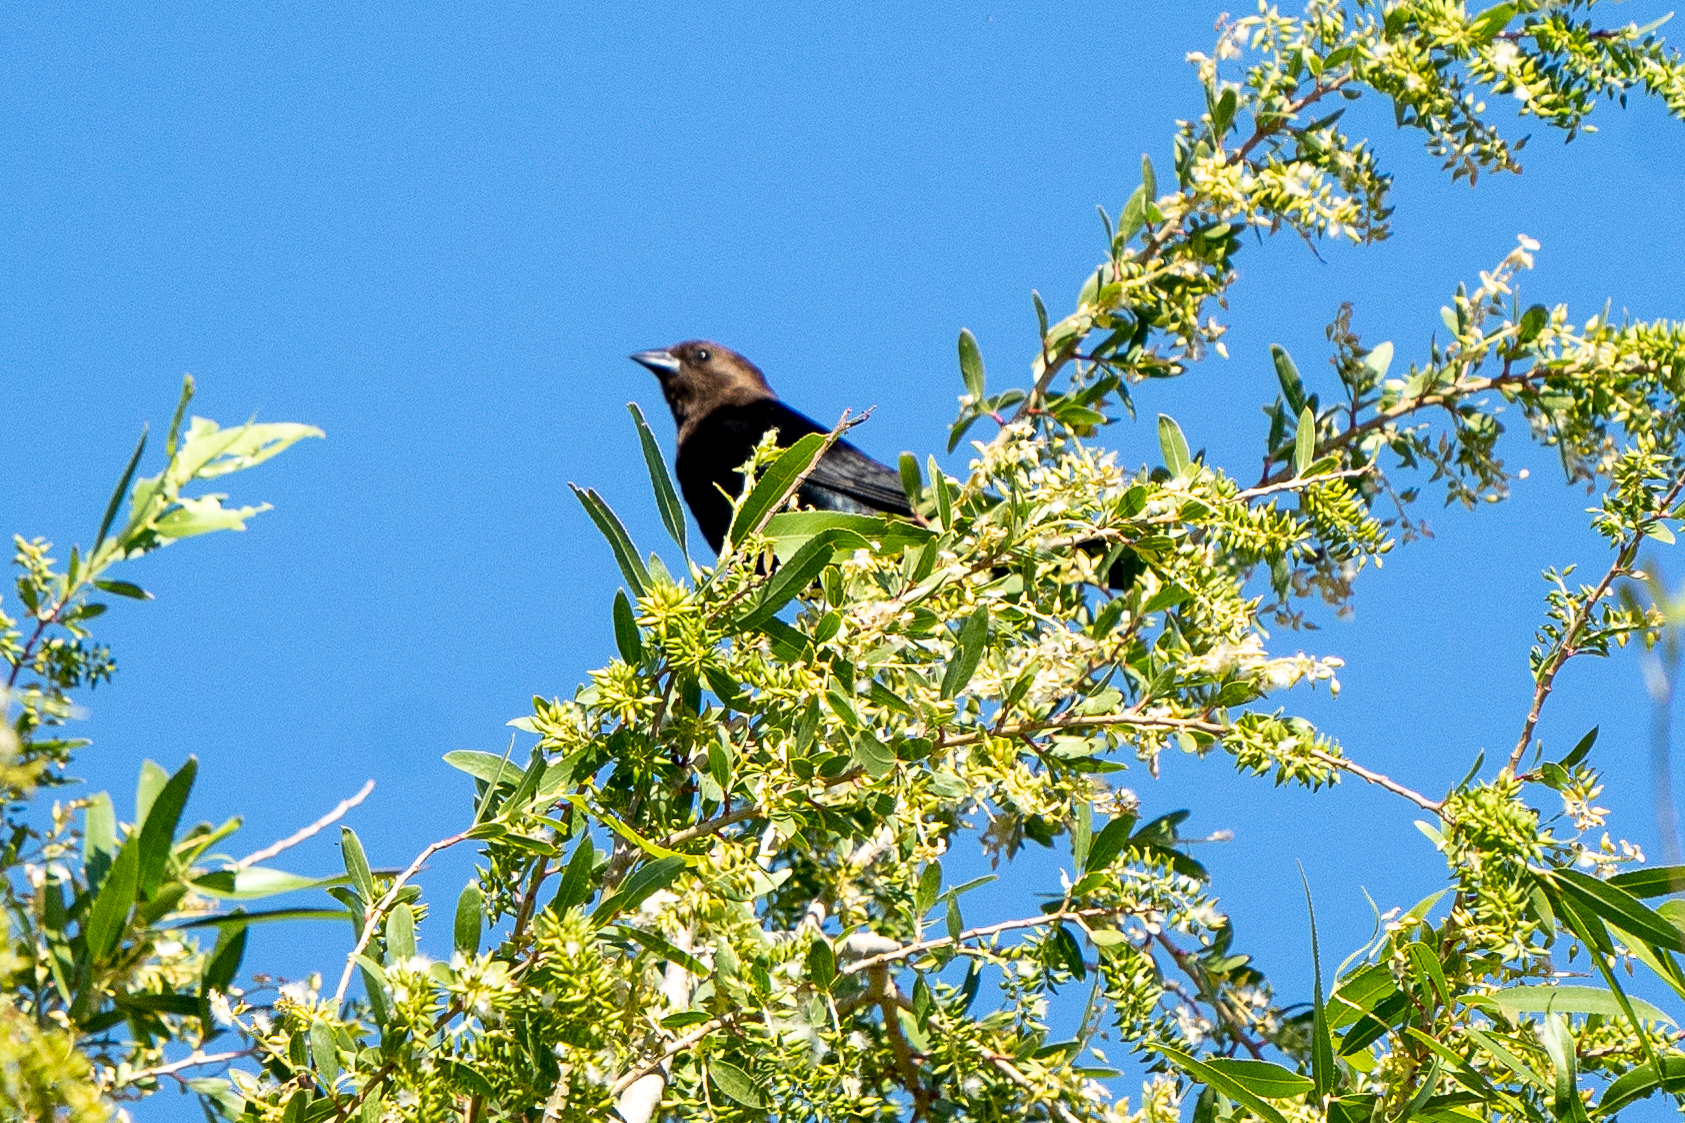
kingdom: Animalia
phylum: Chordata
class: Aves
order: Passeriformes
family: Icteridae
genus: Molothrus
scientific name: Molothrus ater
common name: Brown-headed cowbird
